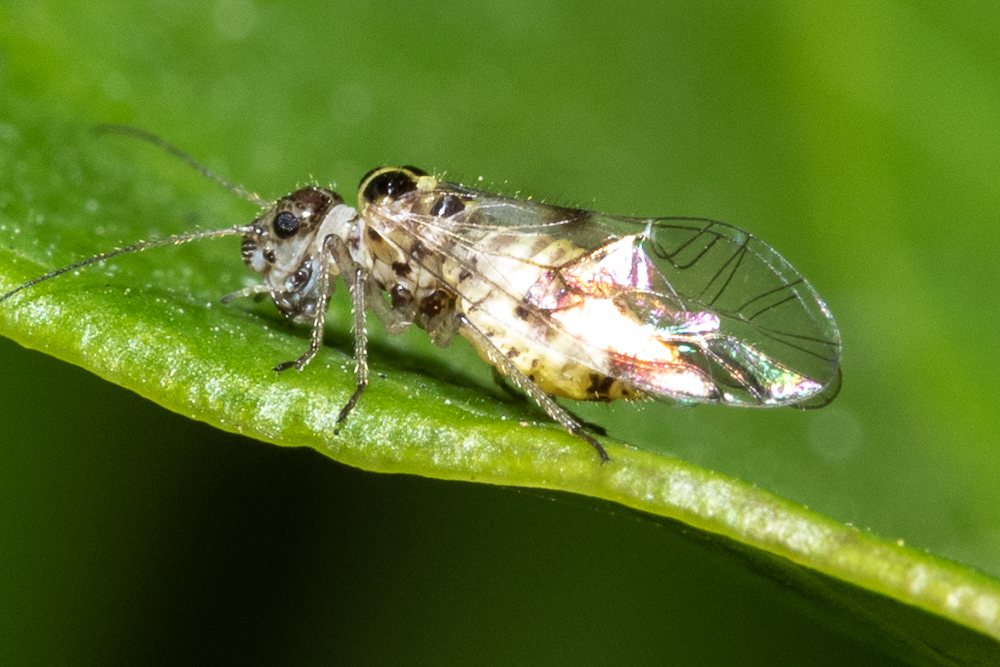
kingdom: Animalia
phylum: Arthropoda
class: Insecta
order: Psocodea
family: Dasydemellidae
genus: Teliapsocus
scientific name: Teliapsocus conterminus
